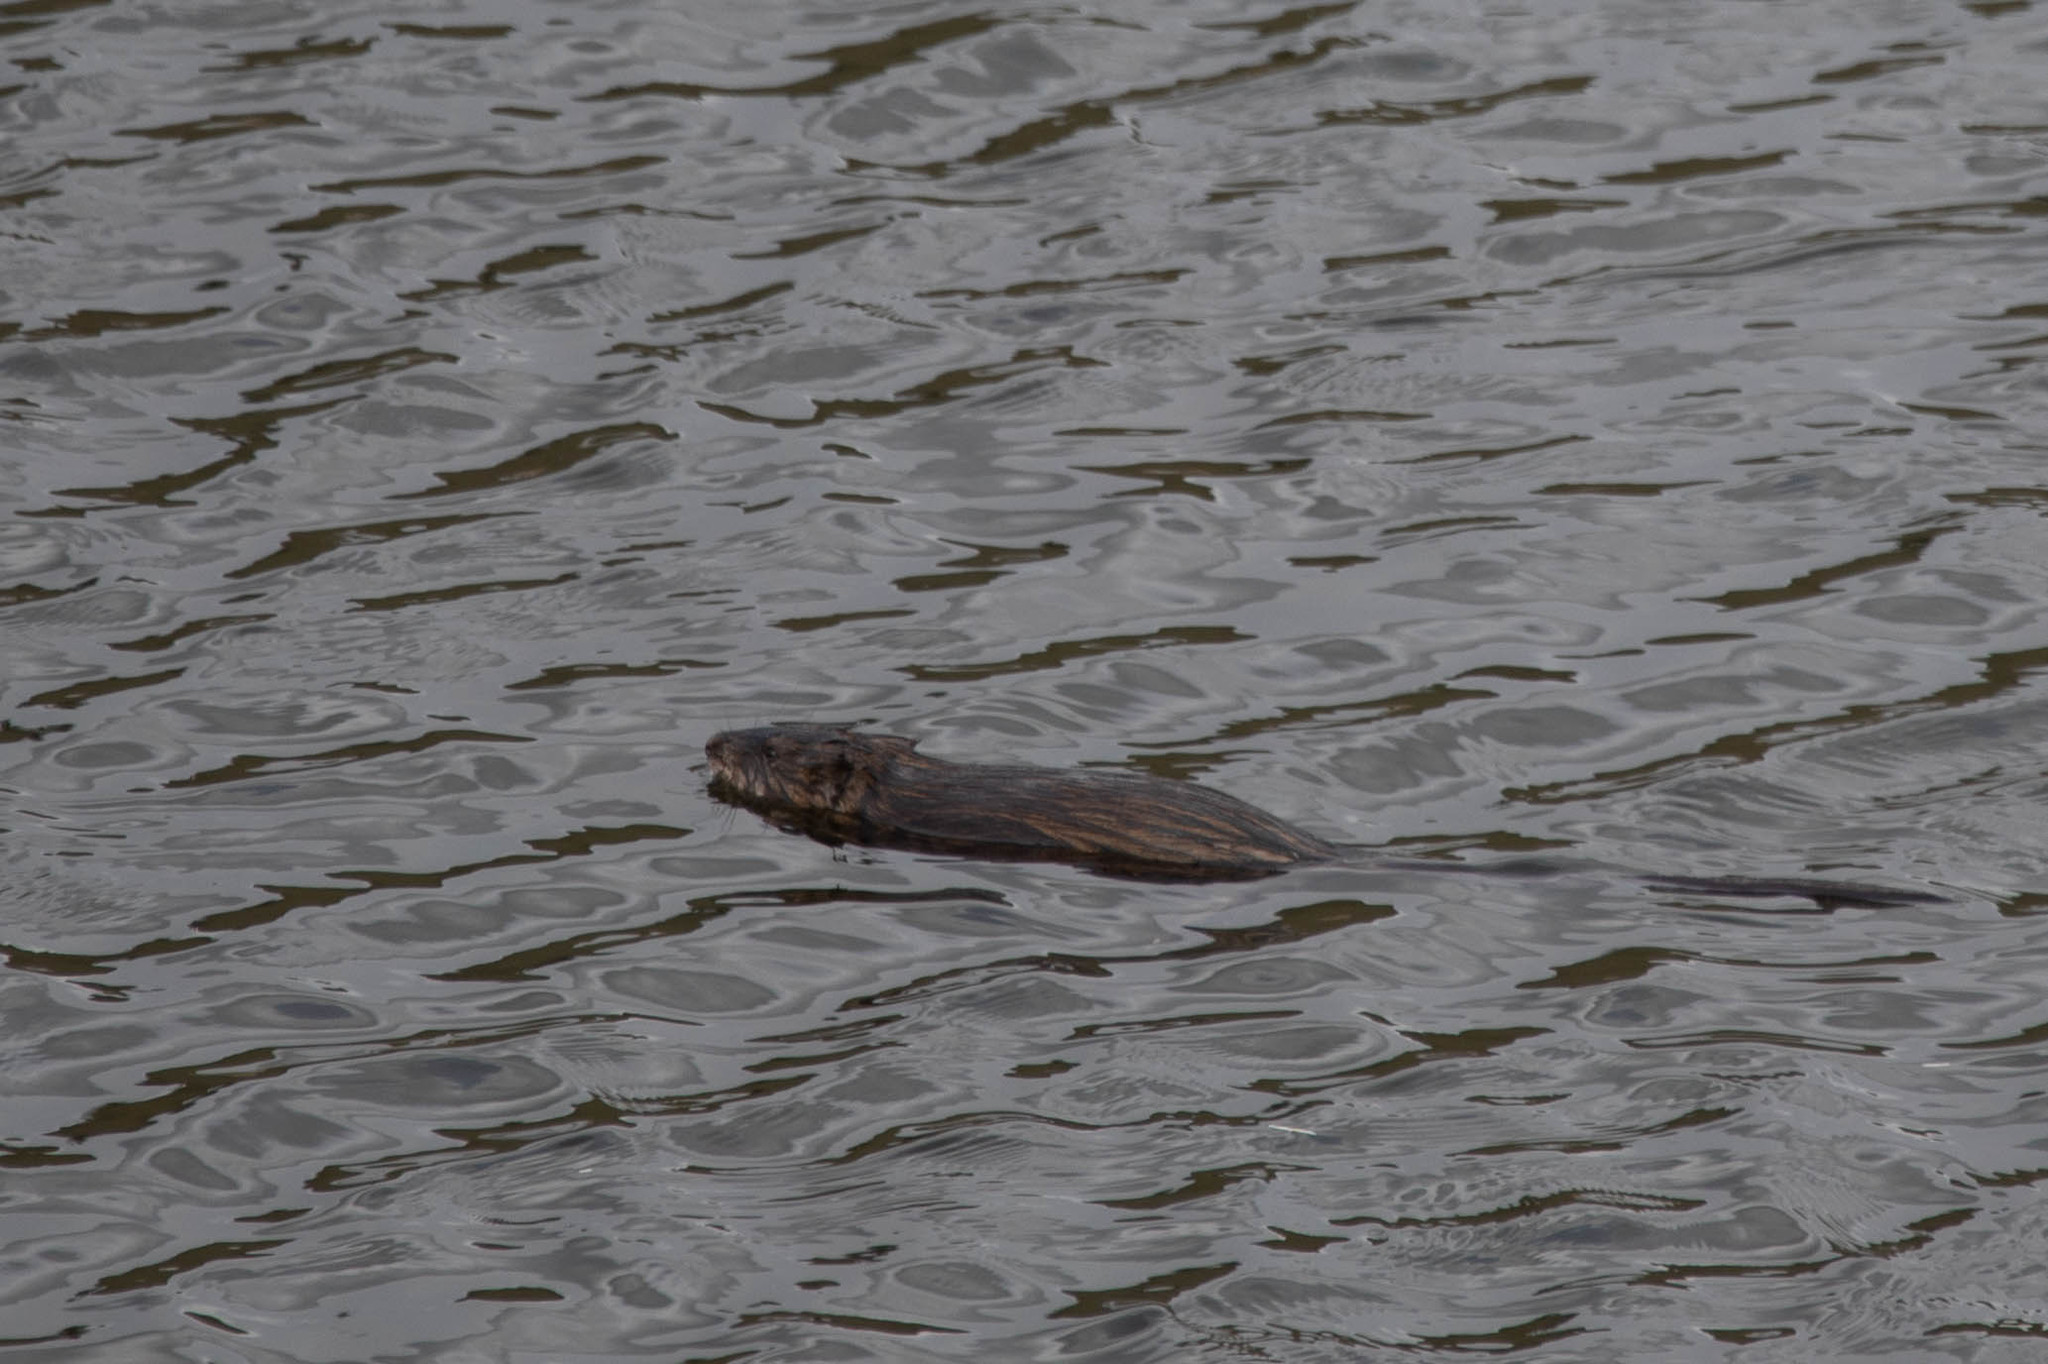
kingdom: Animalia
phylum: Chordata
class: Mammalia
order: Rodentia
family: Cricetidae
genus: Ondatra
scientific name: Ondatra zibethicus
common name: Muskrat
